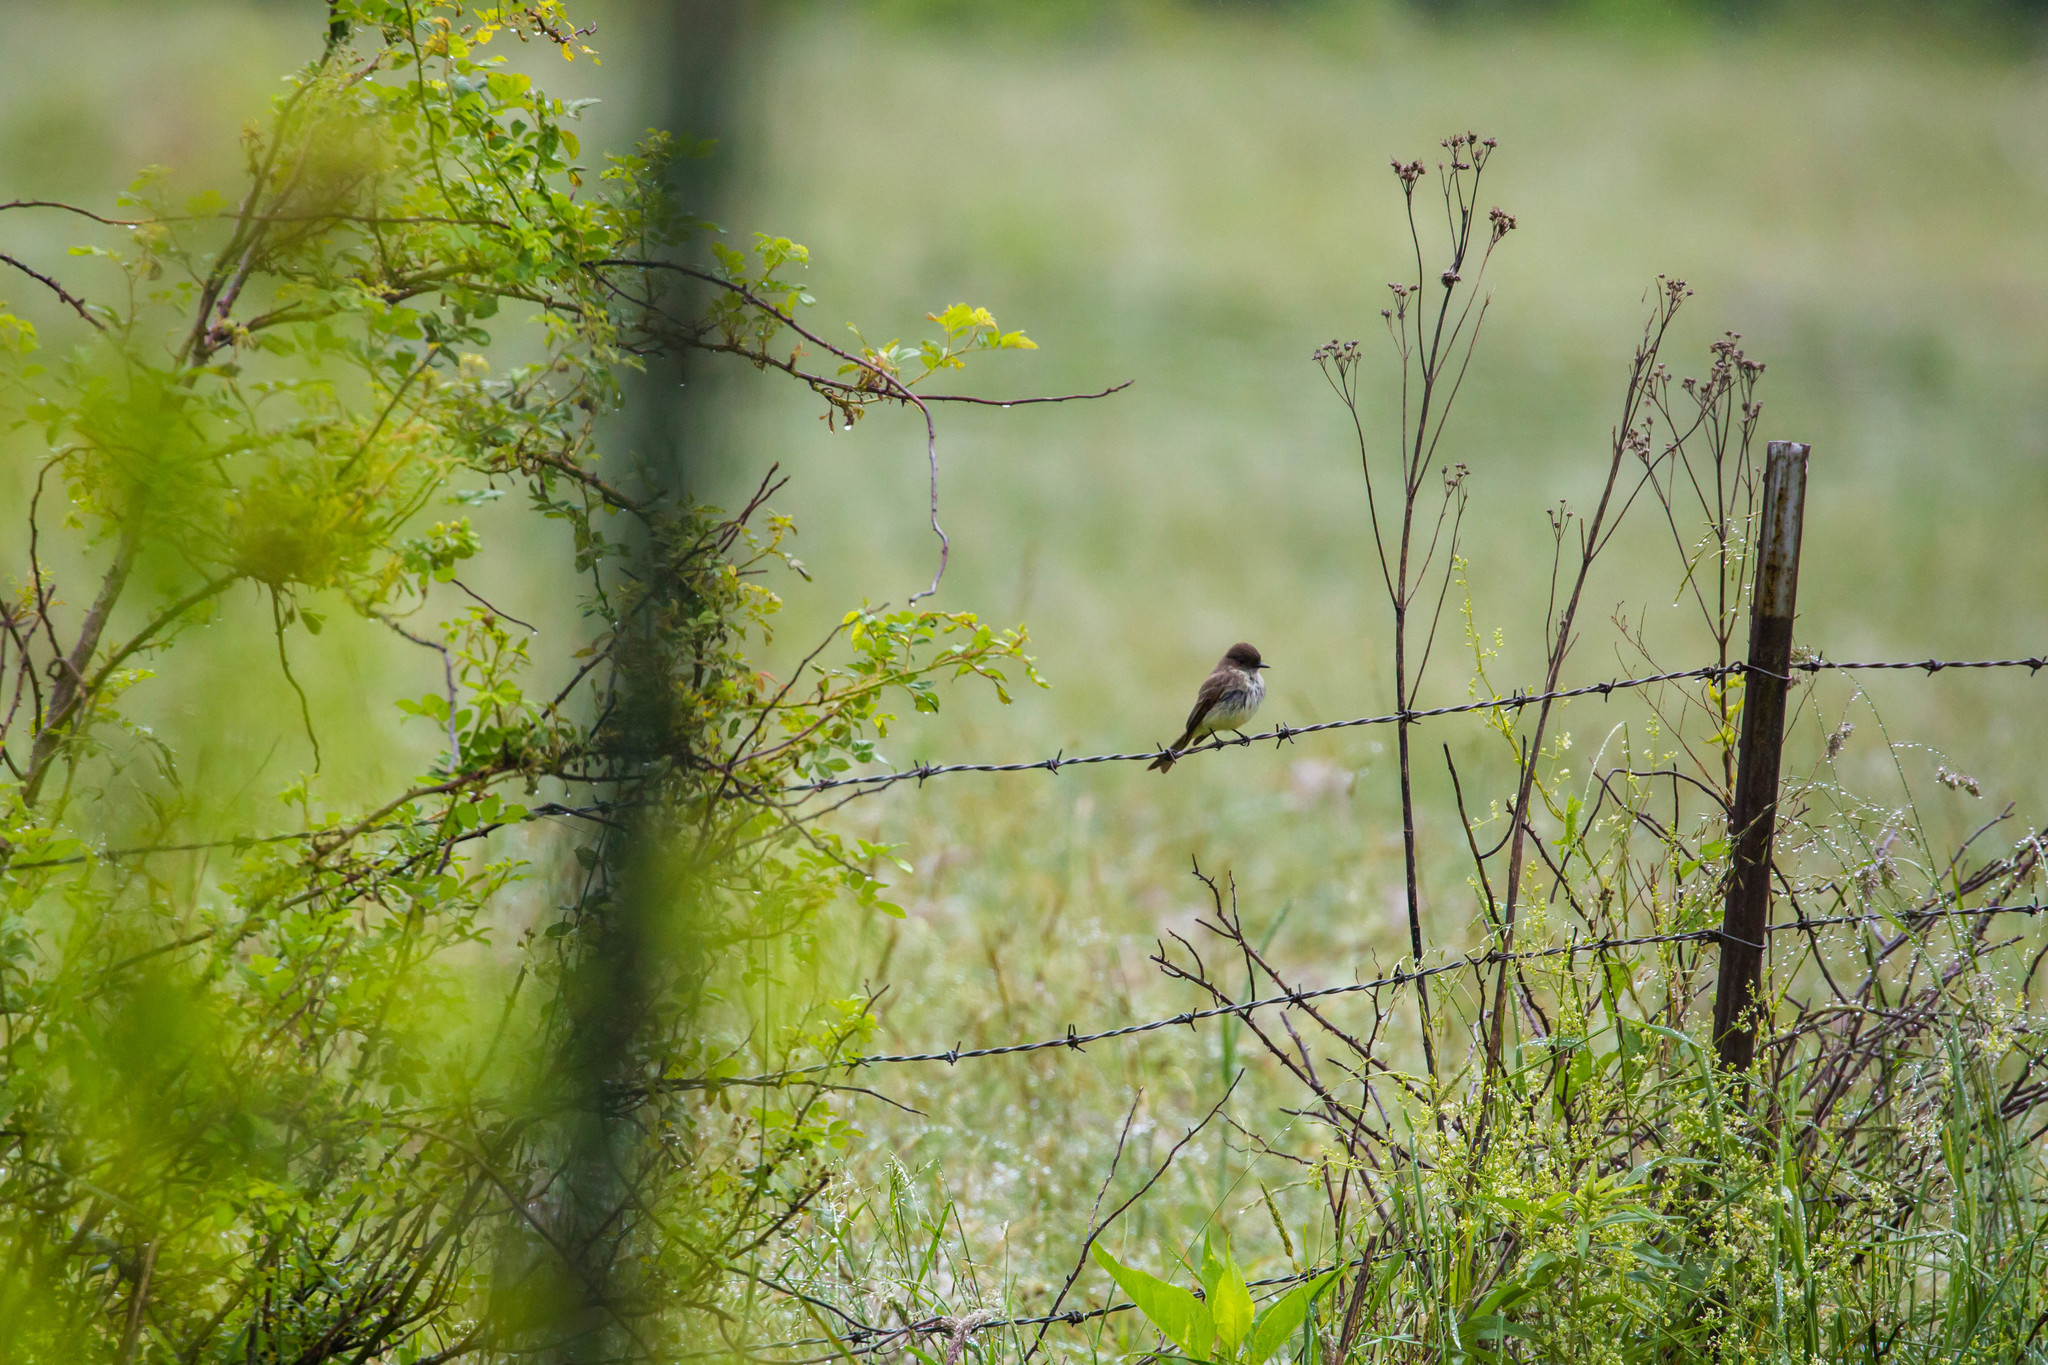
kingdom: Animalia
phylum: Chordata
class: Aves
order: Passeriformes
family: Tyrannidae
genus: Sayornis
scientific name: Sayornis phoebe
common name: Eastern phoebe
